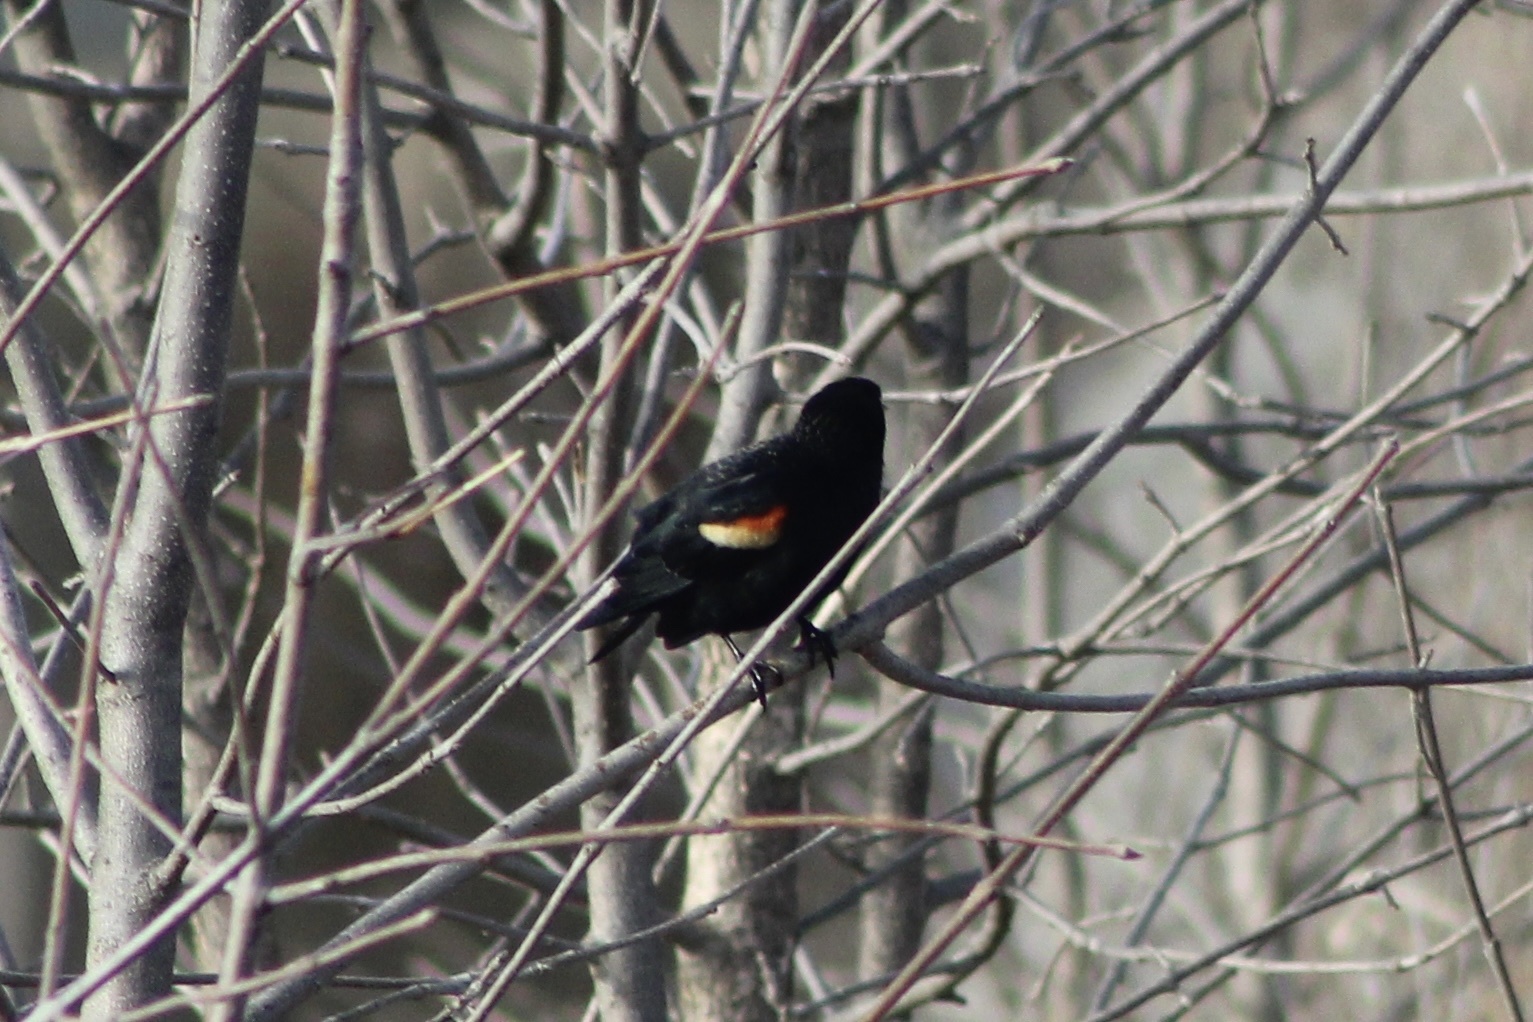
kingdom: Animalia
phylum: Chordata
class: Aves
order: Passeriformes
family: Icteridae
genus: Agelaius
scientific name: Agelaius phoeniceus
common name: Red-winged blackbird
